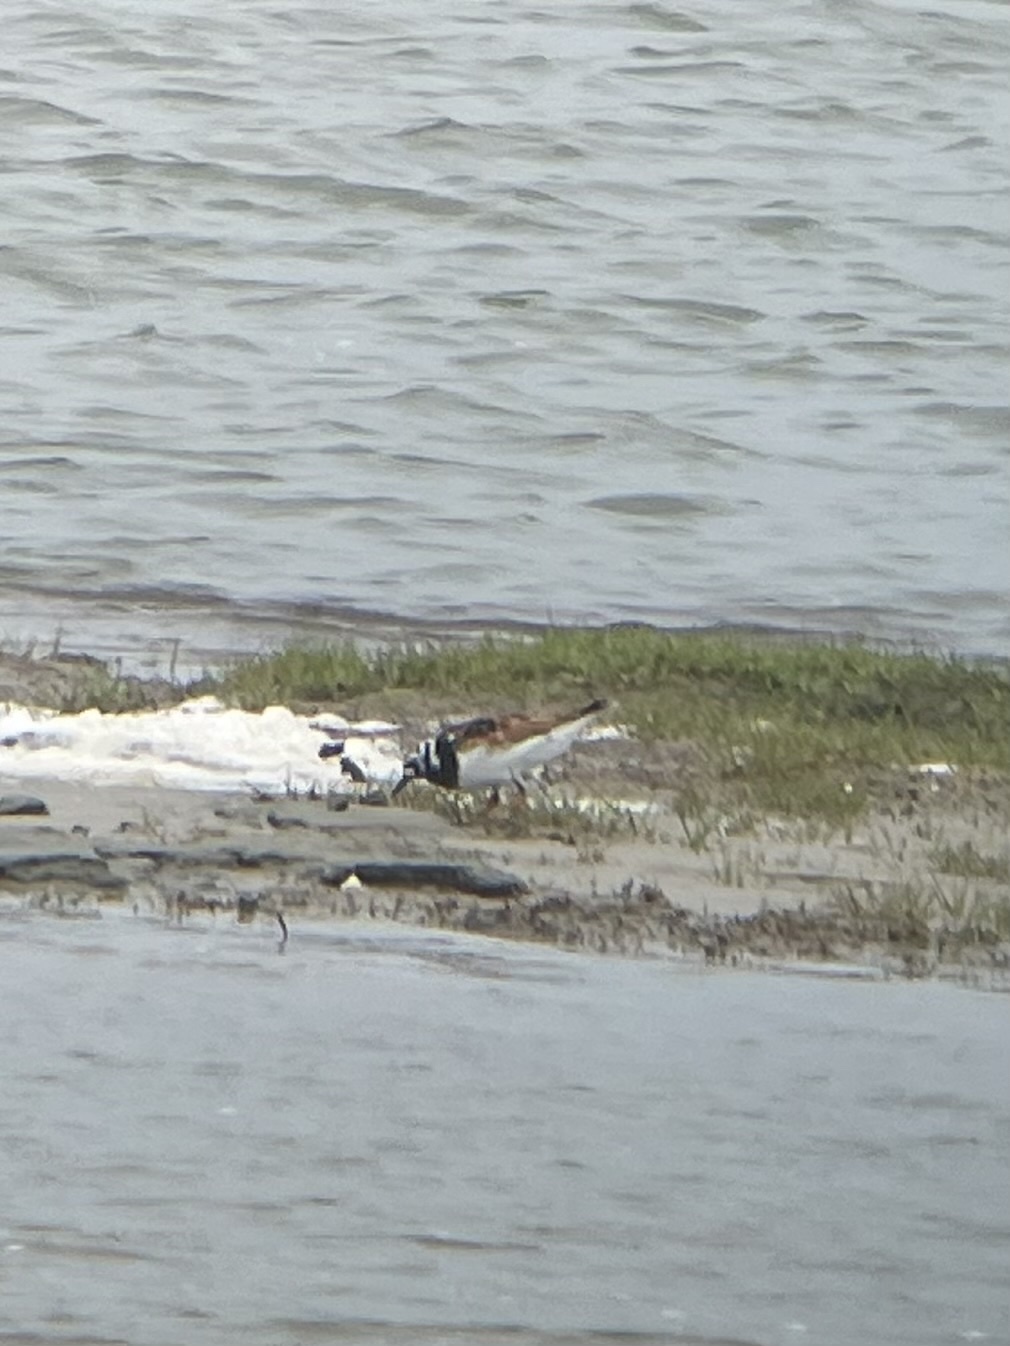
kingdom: Animalia
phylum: Chordata
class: Aves
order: Charadriiformes
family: Scolopacidae
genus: Arenaria
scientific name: Arenaria interpres
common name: Ruddy turnstone
